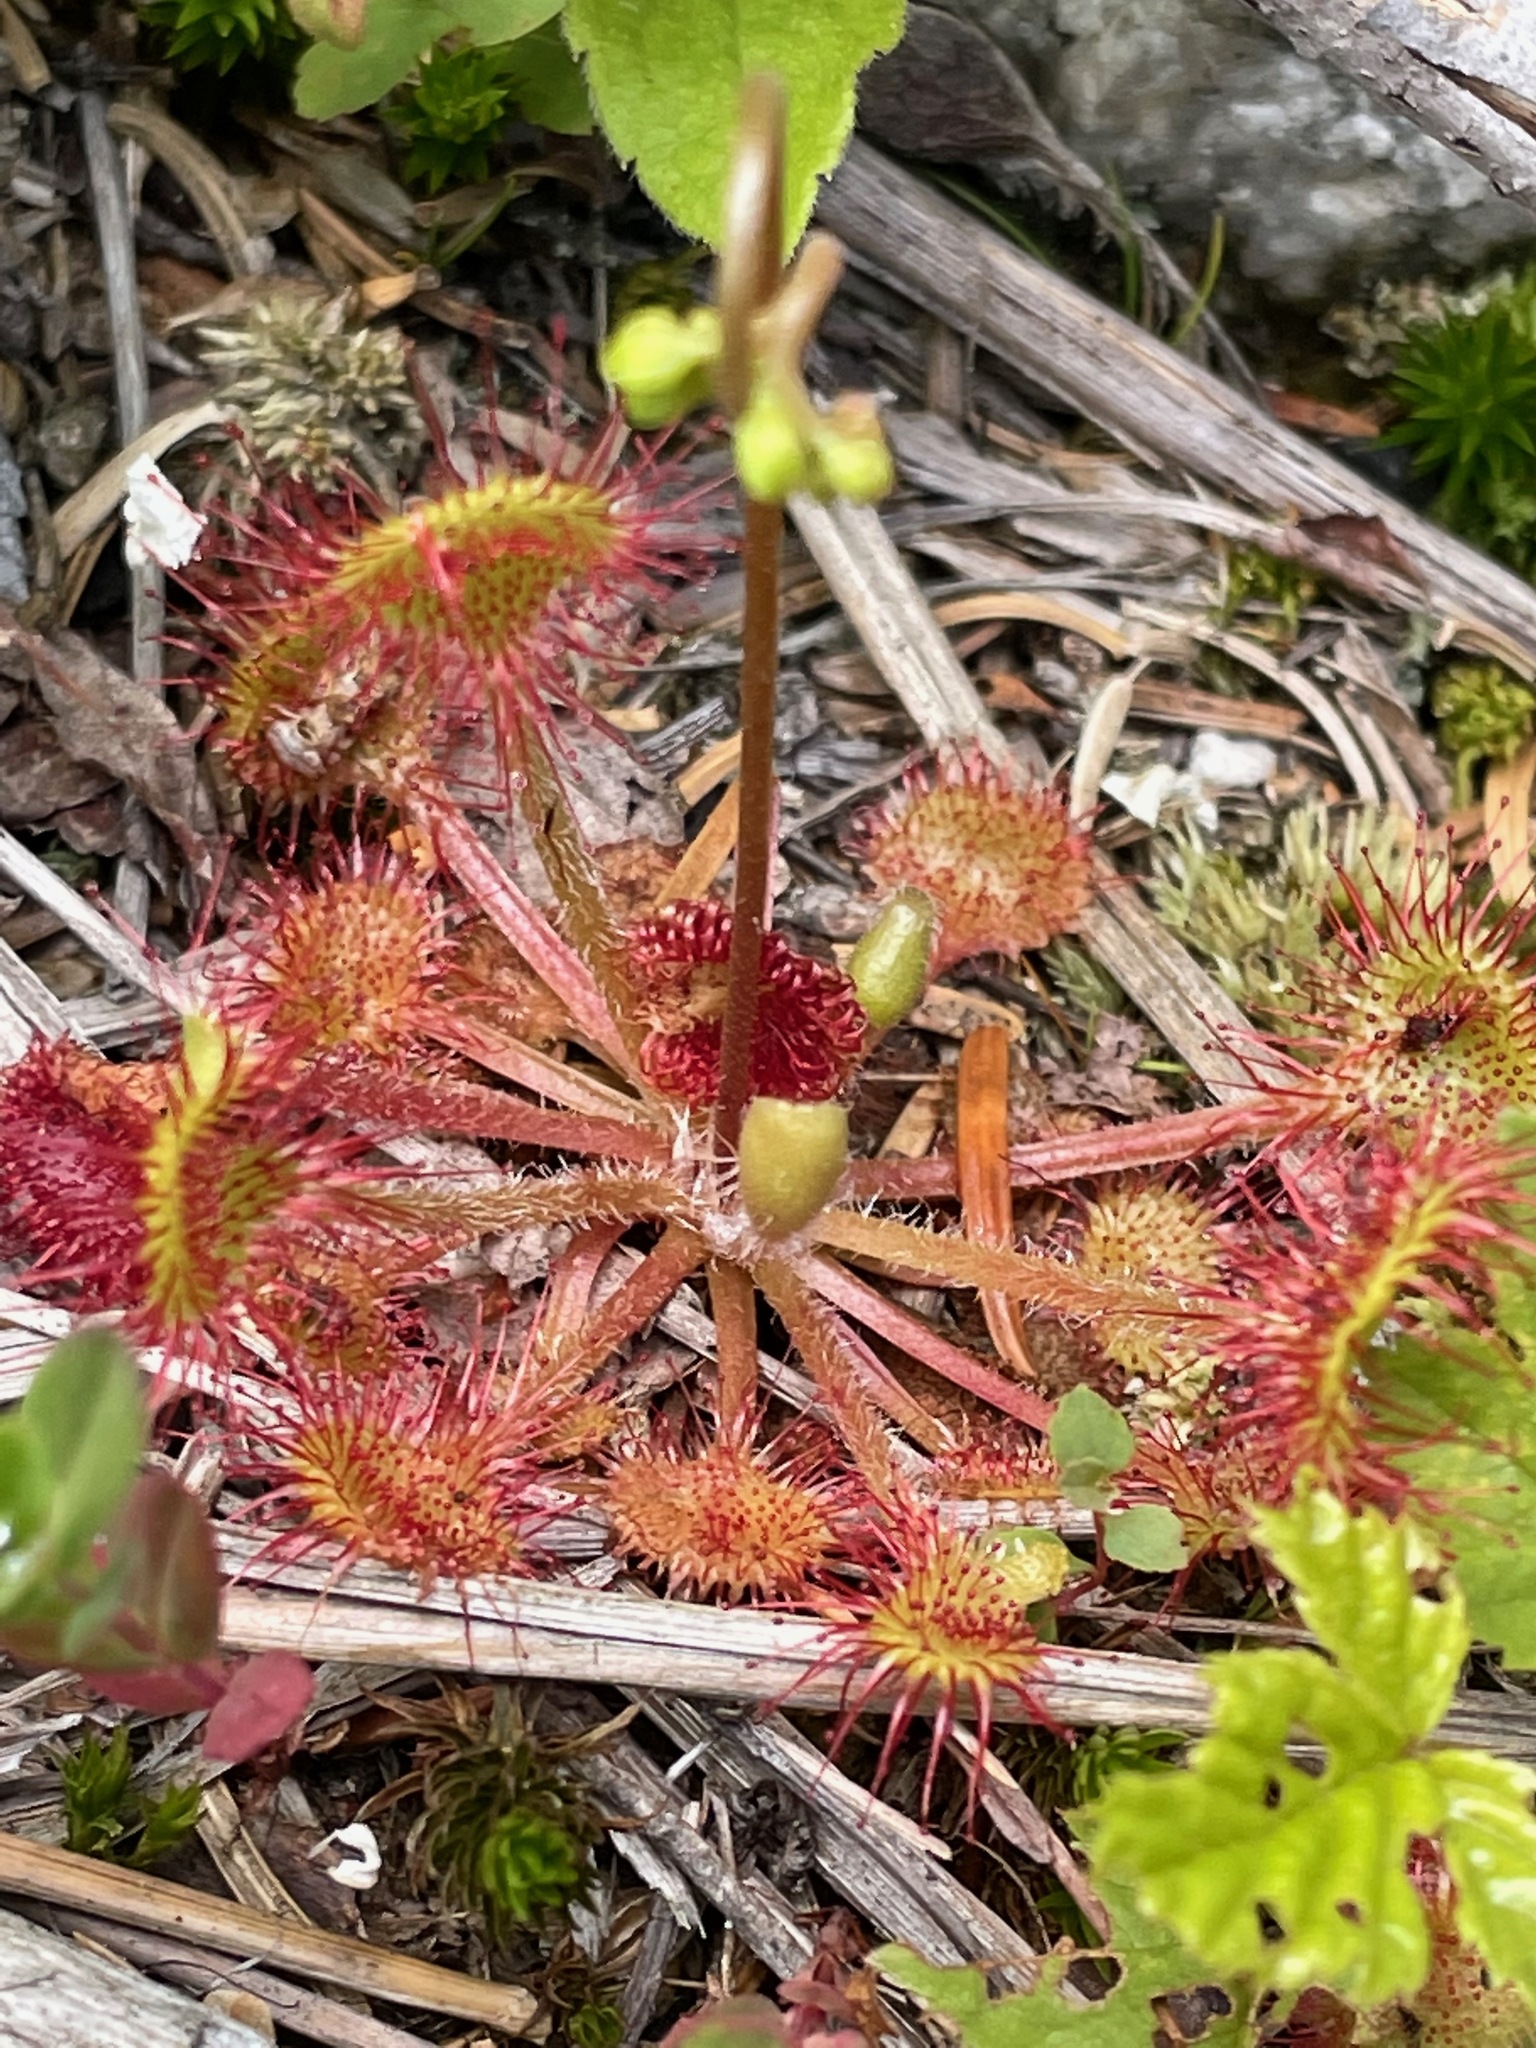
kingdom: Plantae
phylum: Tracheophyta
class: Magnoliopsida
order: Caryophyllales
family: Droseraceae
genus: Drosera
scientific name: Drosera rotundifolia
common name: Round-leaved sundew
